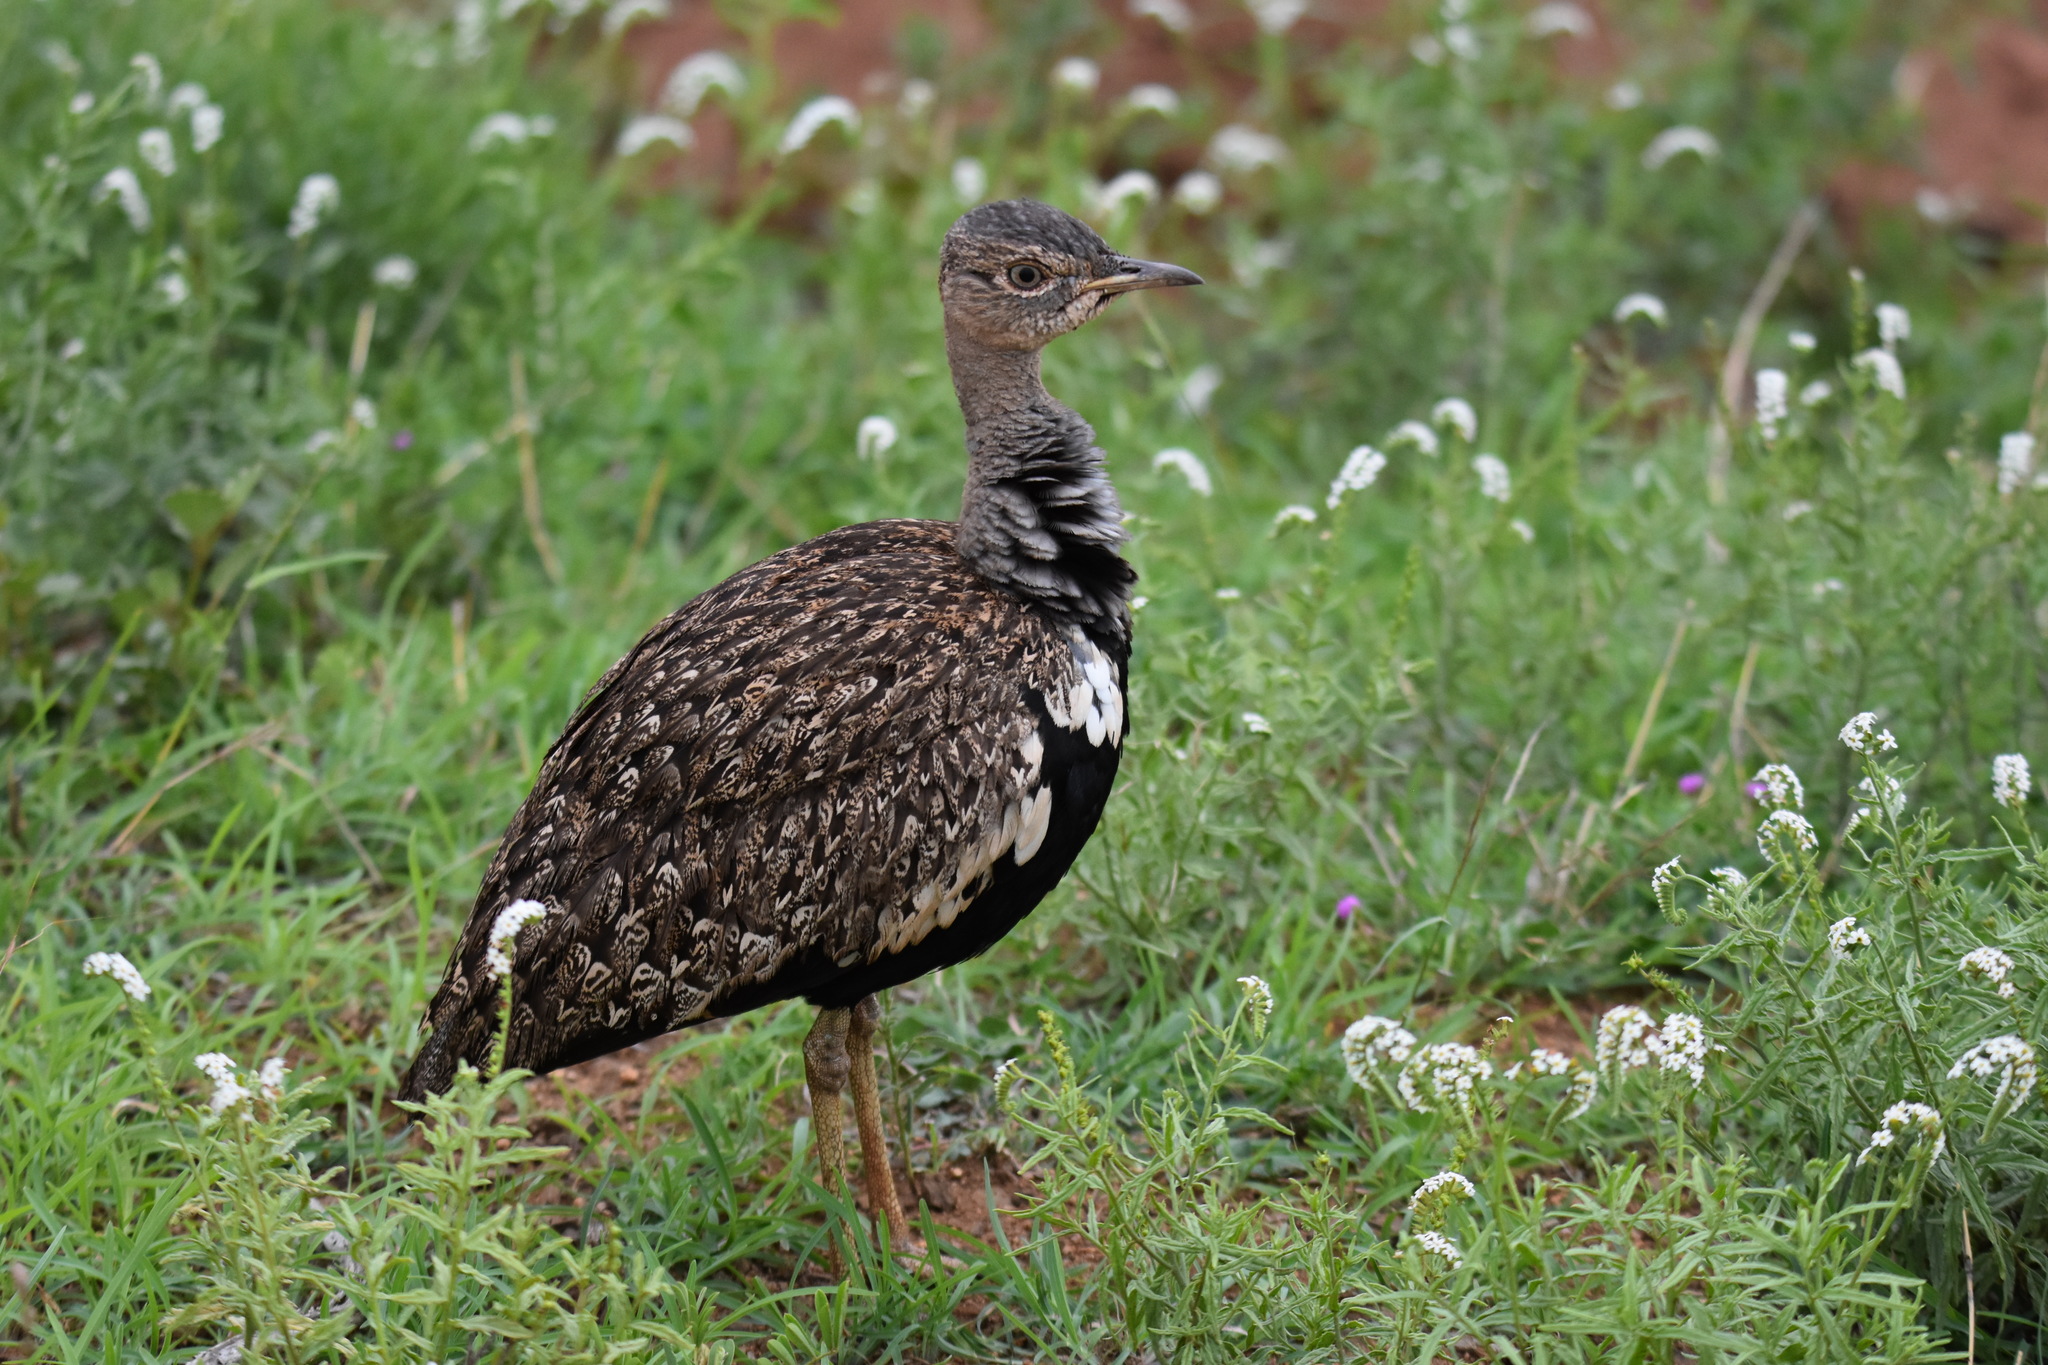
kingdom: Animalia
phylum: Chordata
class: Aves
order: Otidiformes
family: Otididae
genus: Lophotis
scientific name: Lophotis ruficrista
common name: Red-crested korhaan
